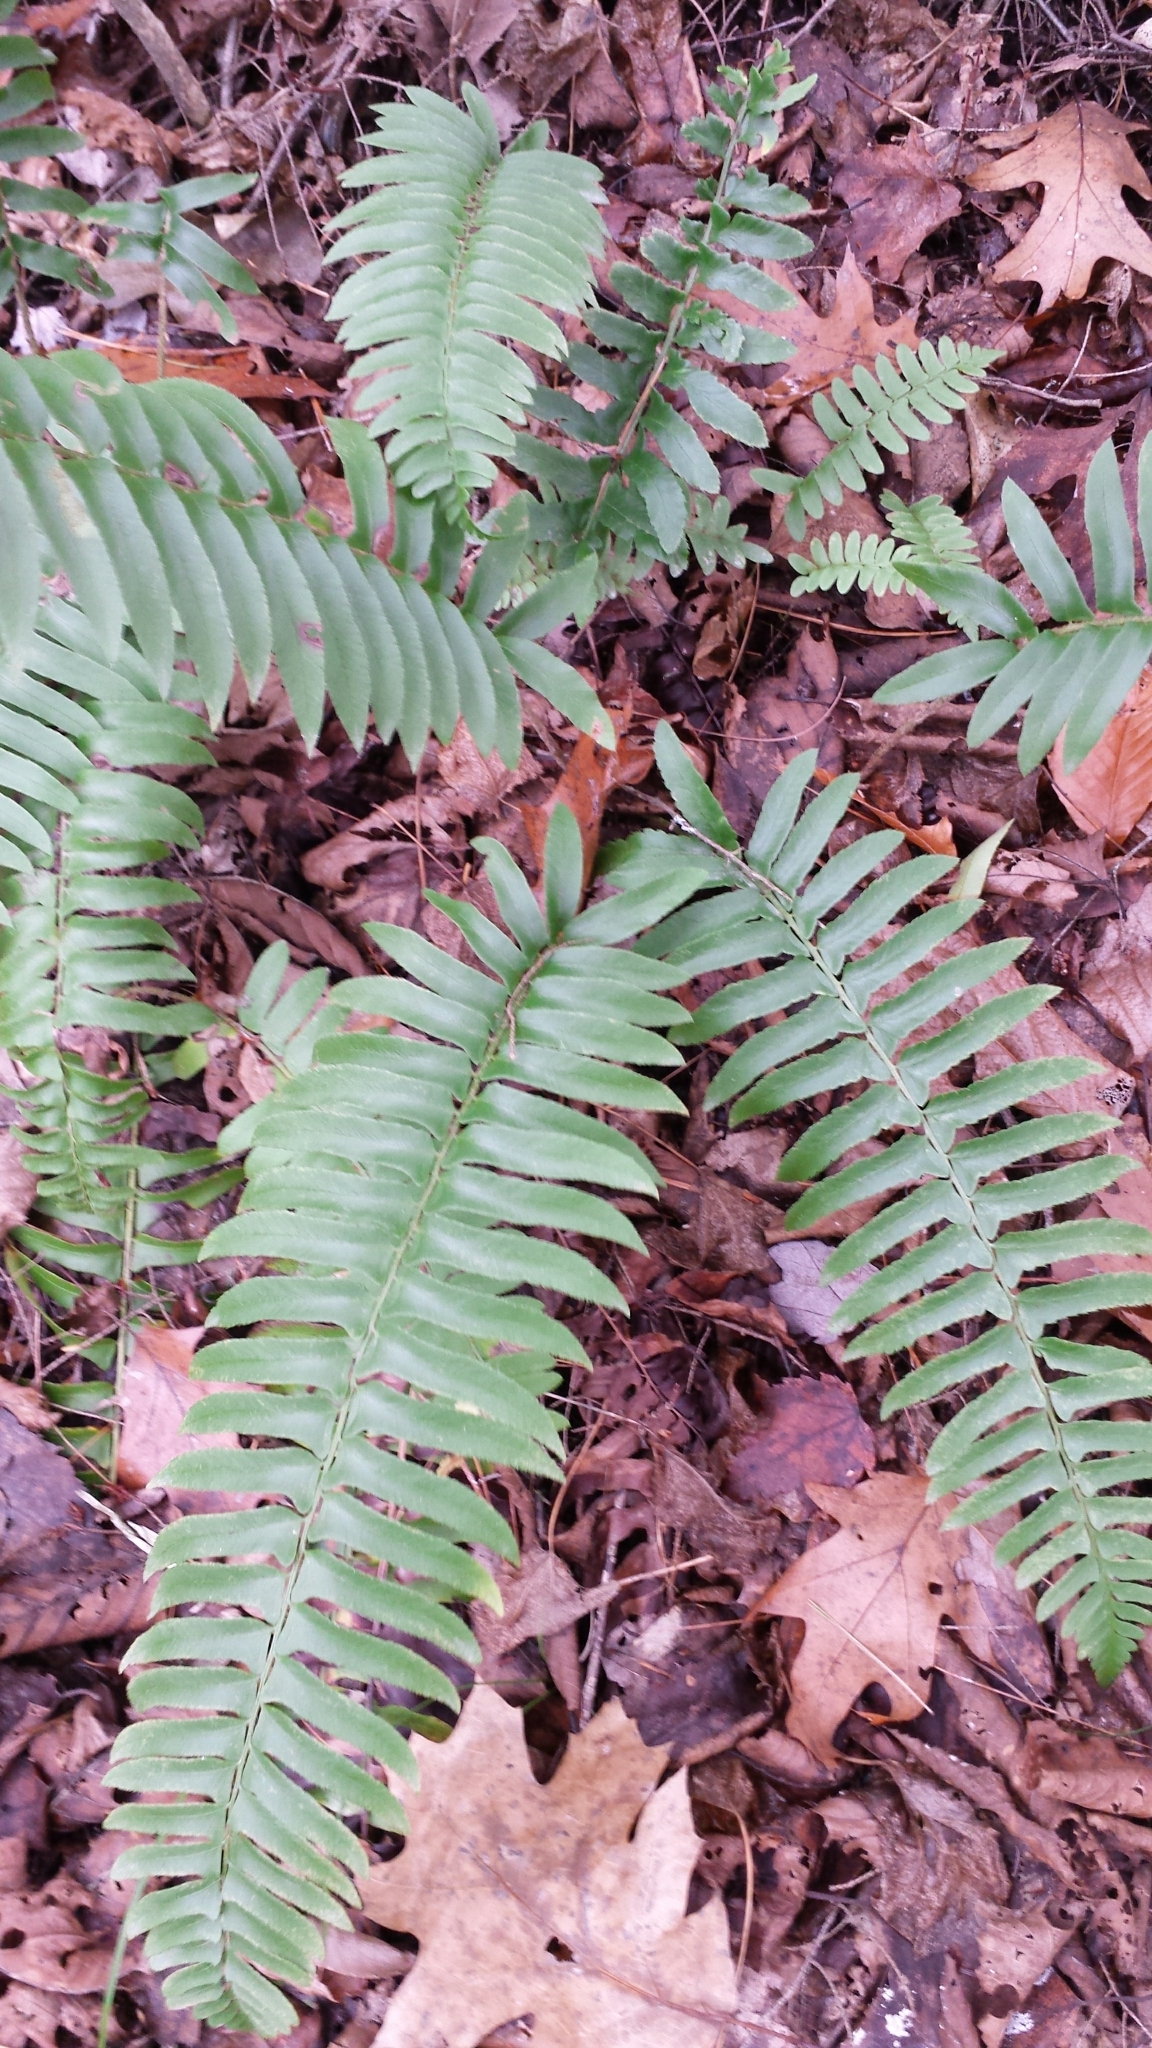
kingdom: Plantae
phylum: Tracheophyta
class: Polypodiopsida
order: Polypodiales
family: Dryopteridaceae
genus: Polystichum
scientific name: Polystichum acrostichoides
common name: Christmas fern
